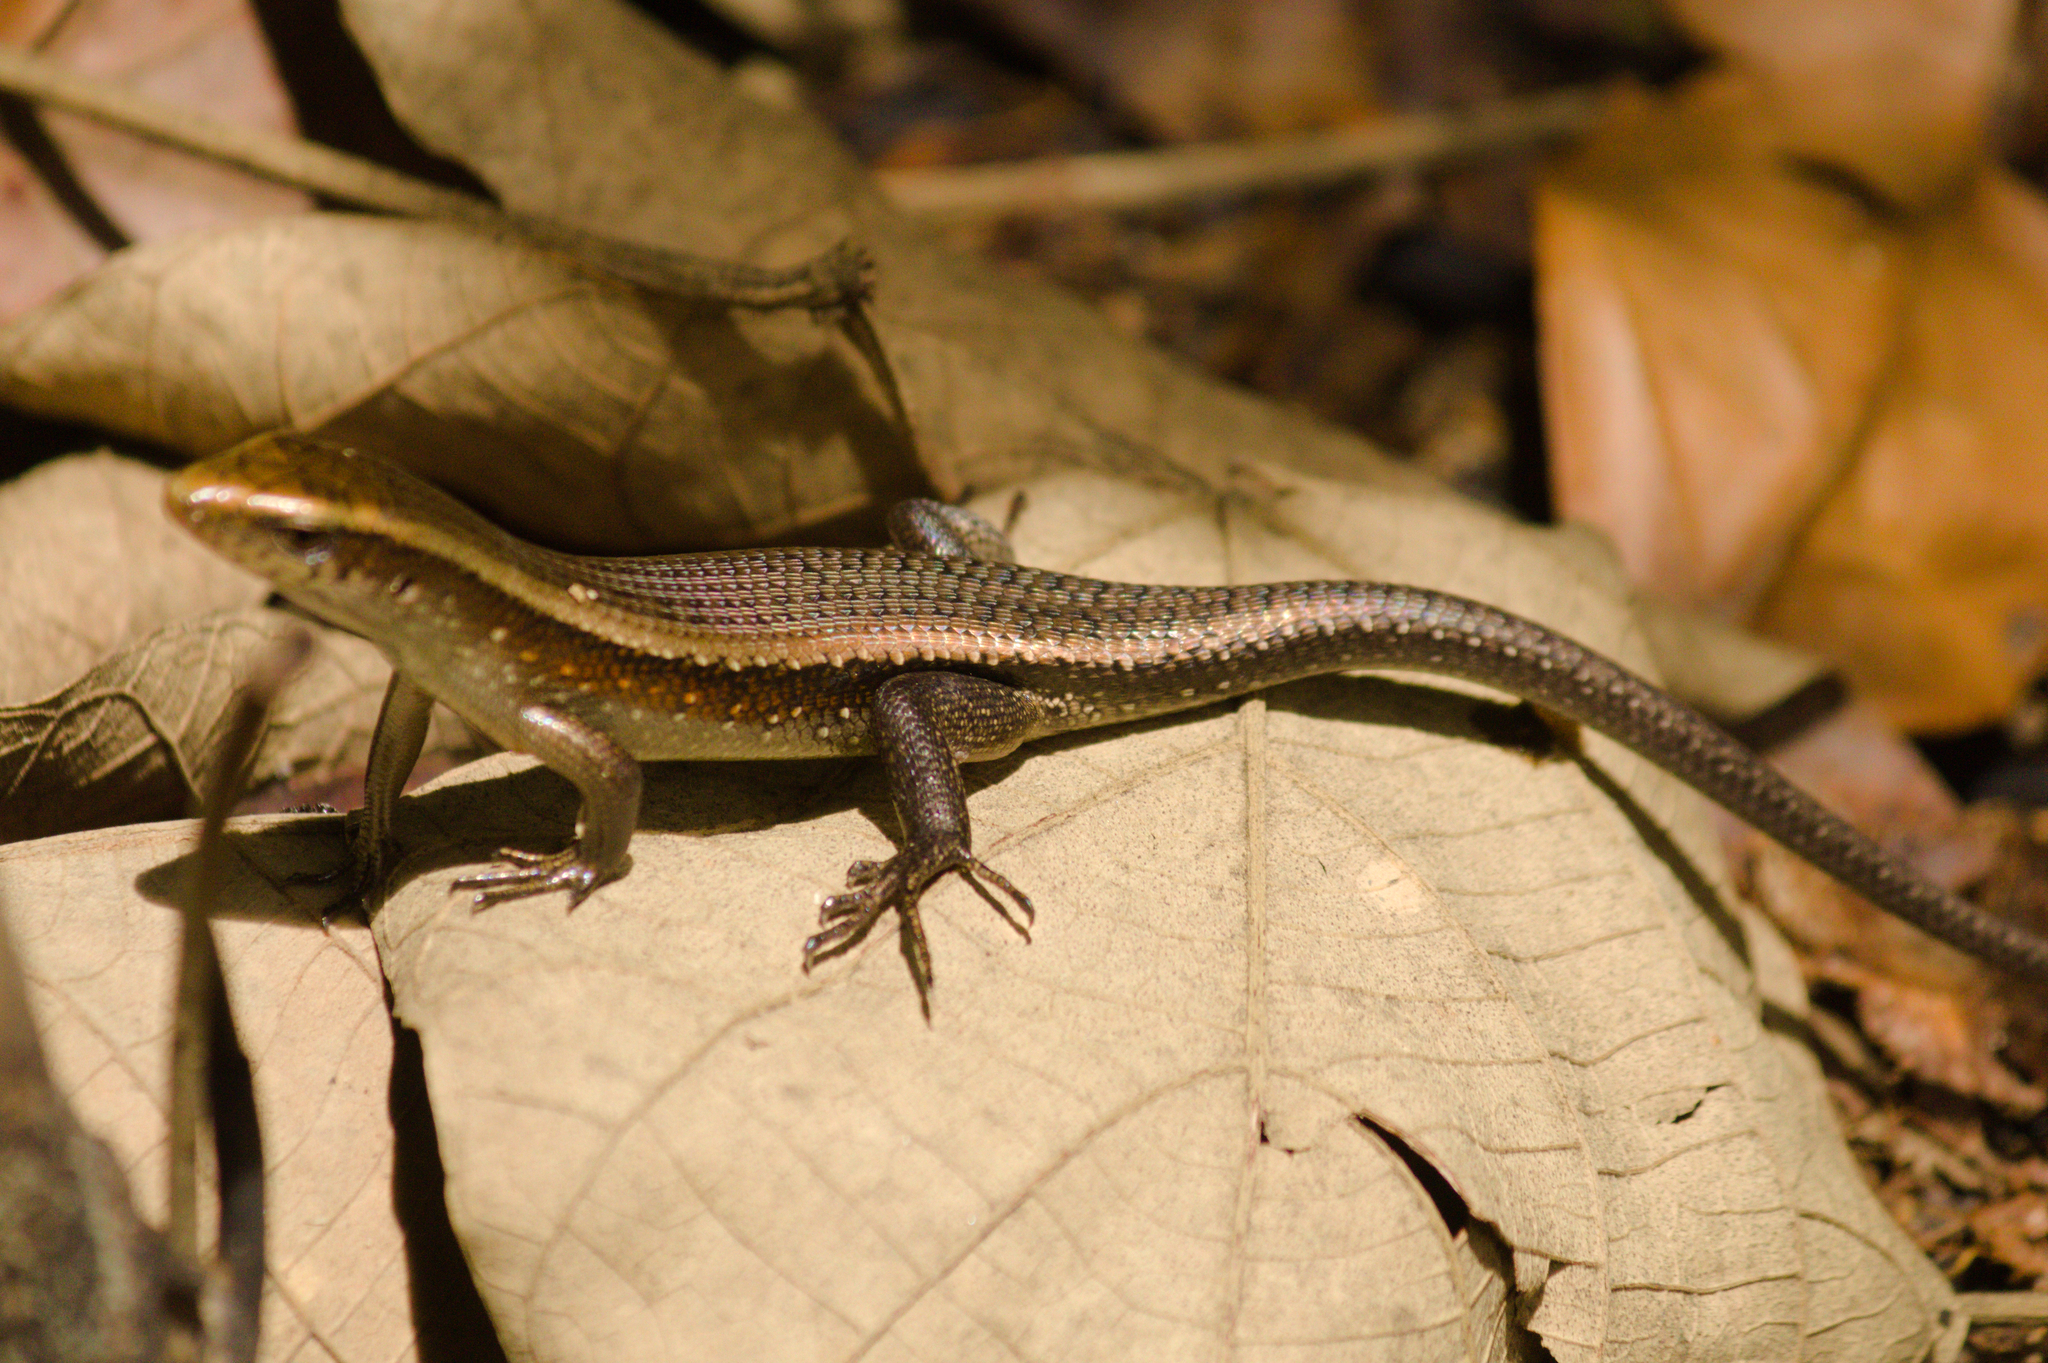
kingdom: Animalia
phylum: Chordata
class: Squamata
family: Scincidae
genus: Eutropis
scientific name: Eutropis multifasciata
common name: Common mabuya
